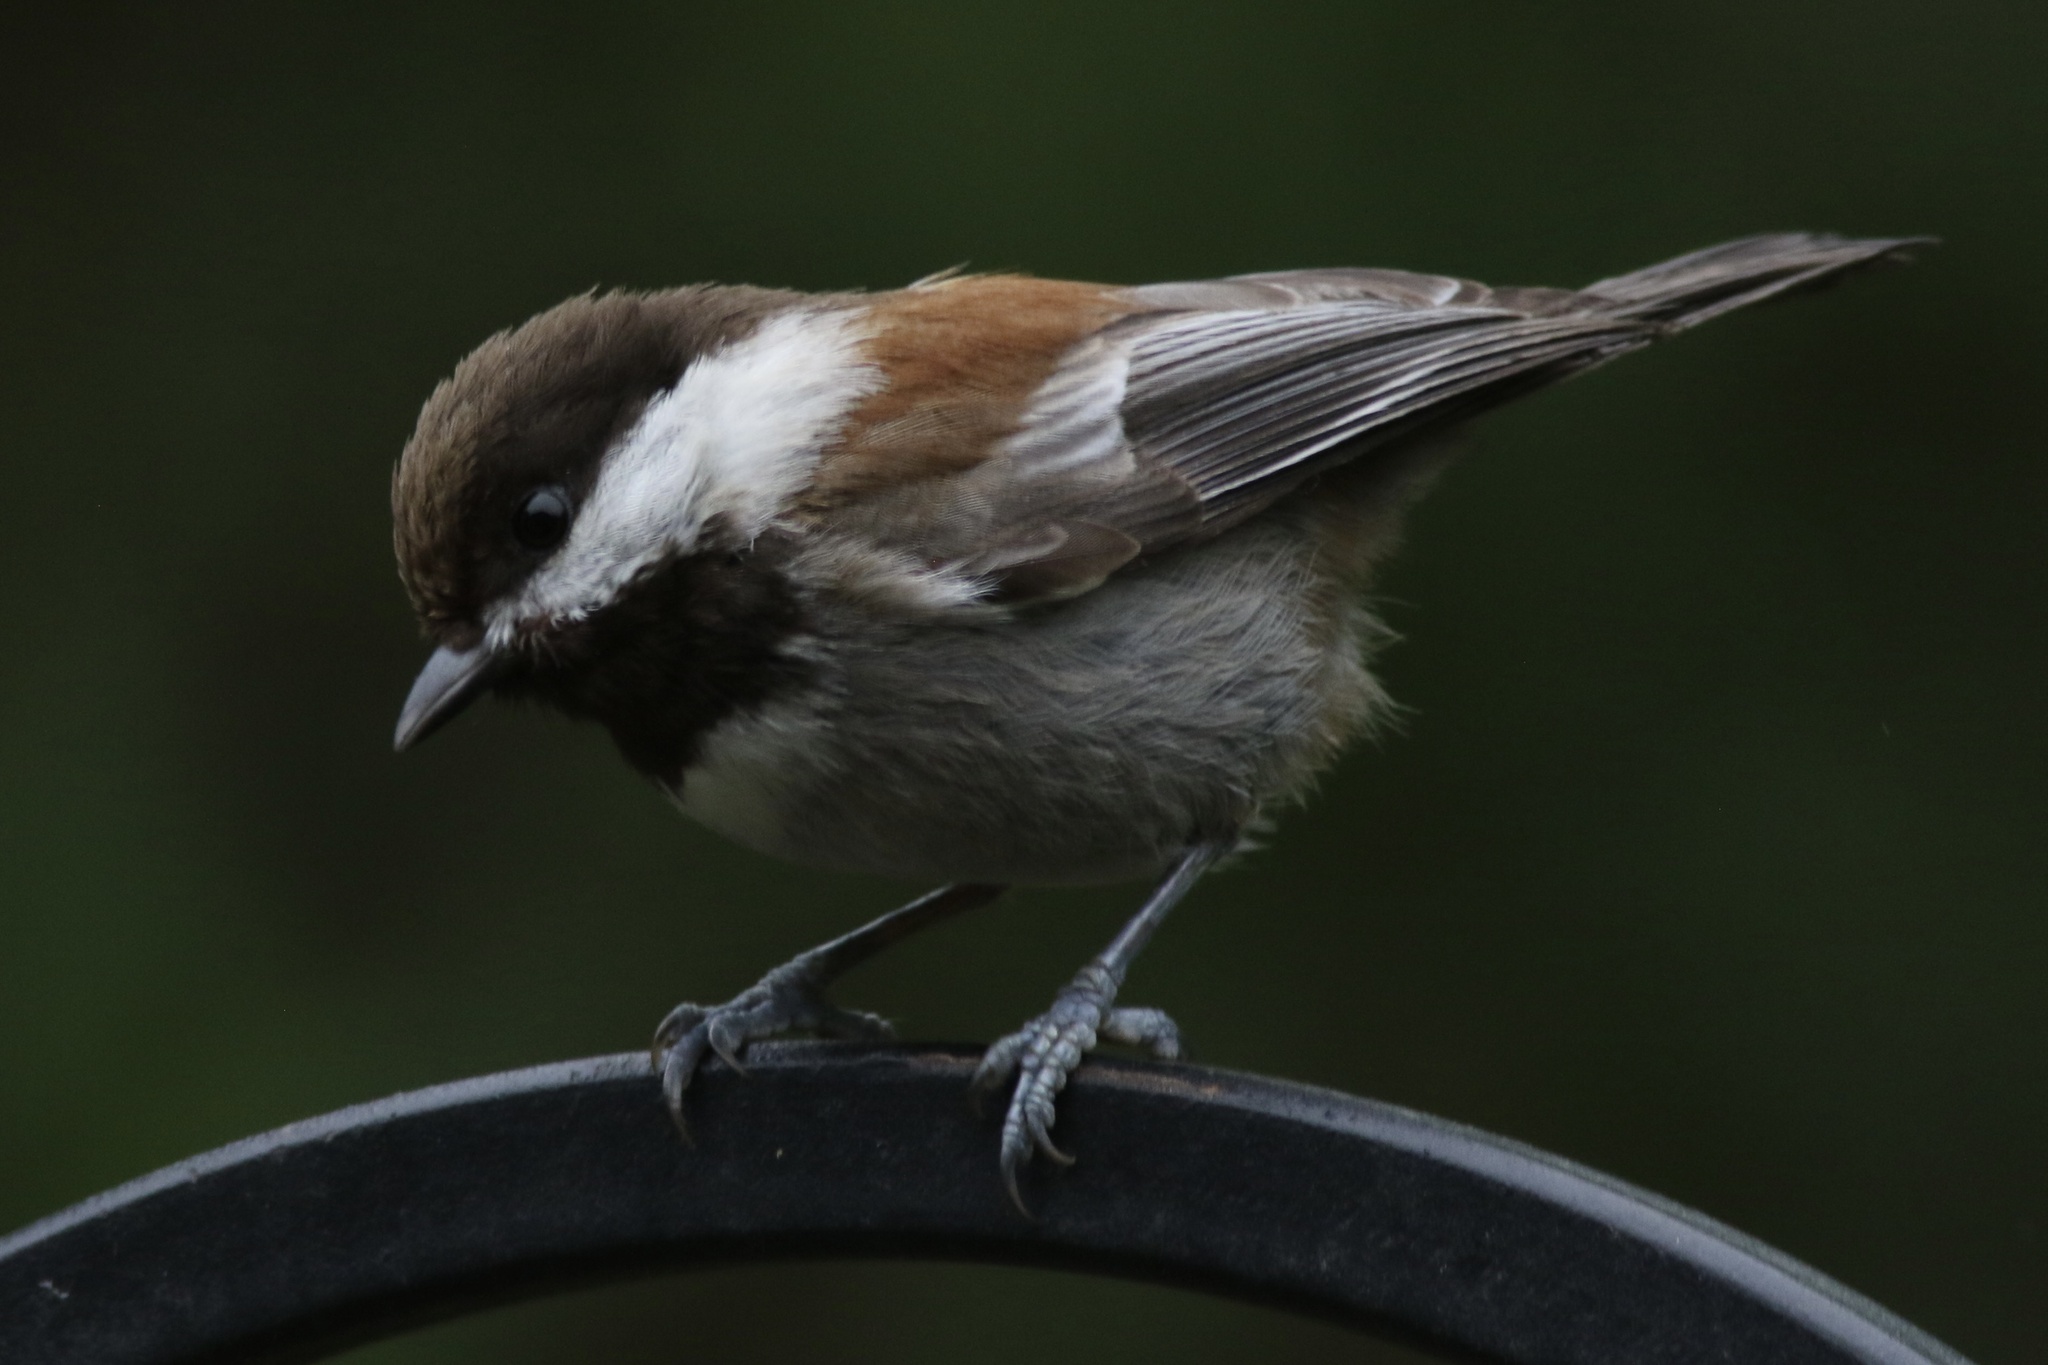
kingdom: Animalia
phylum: Chordata
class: Aves
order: Passeriformes
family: Paridae
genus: Poecile
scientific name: Poecile rufescens
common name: Chestnut-backed chickadee
